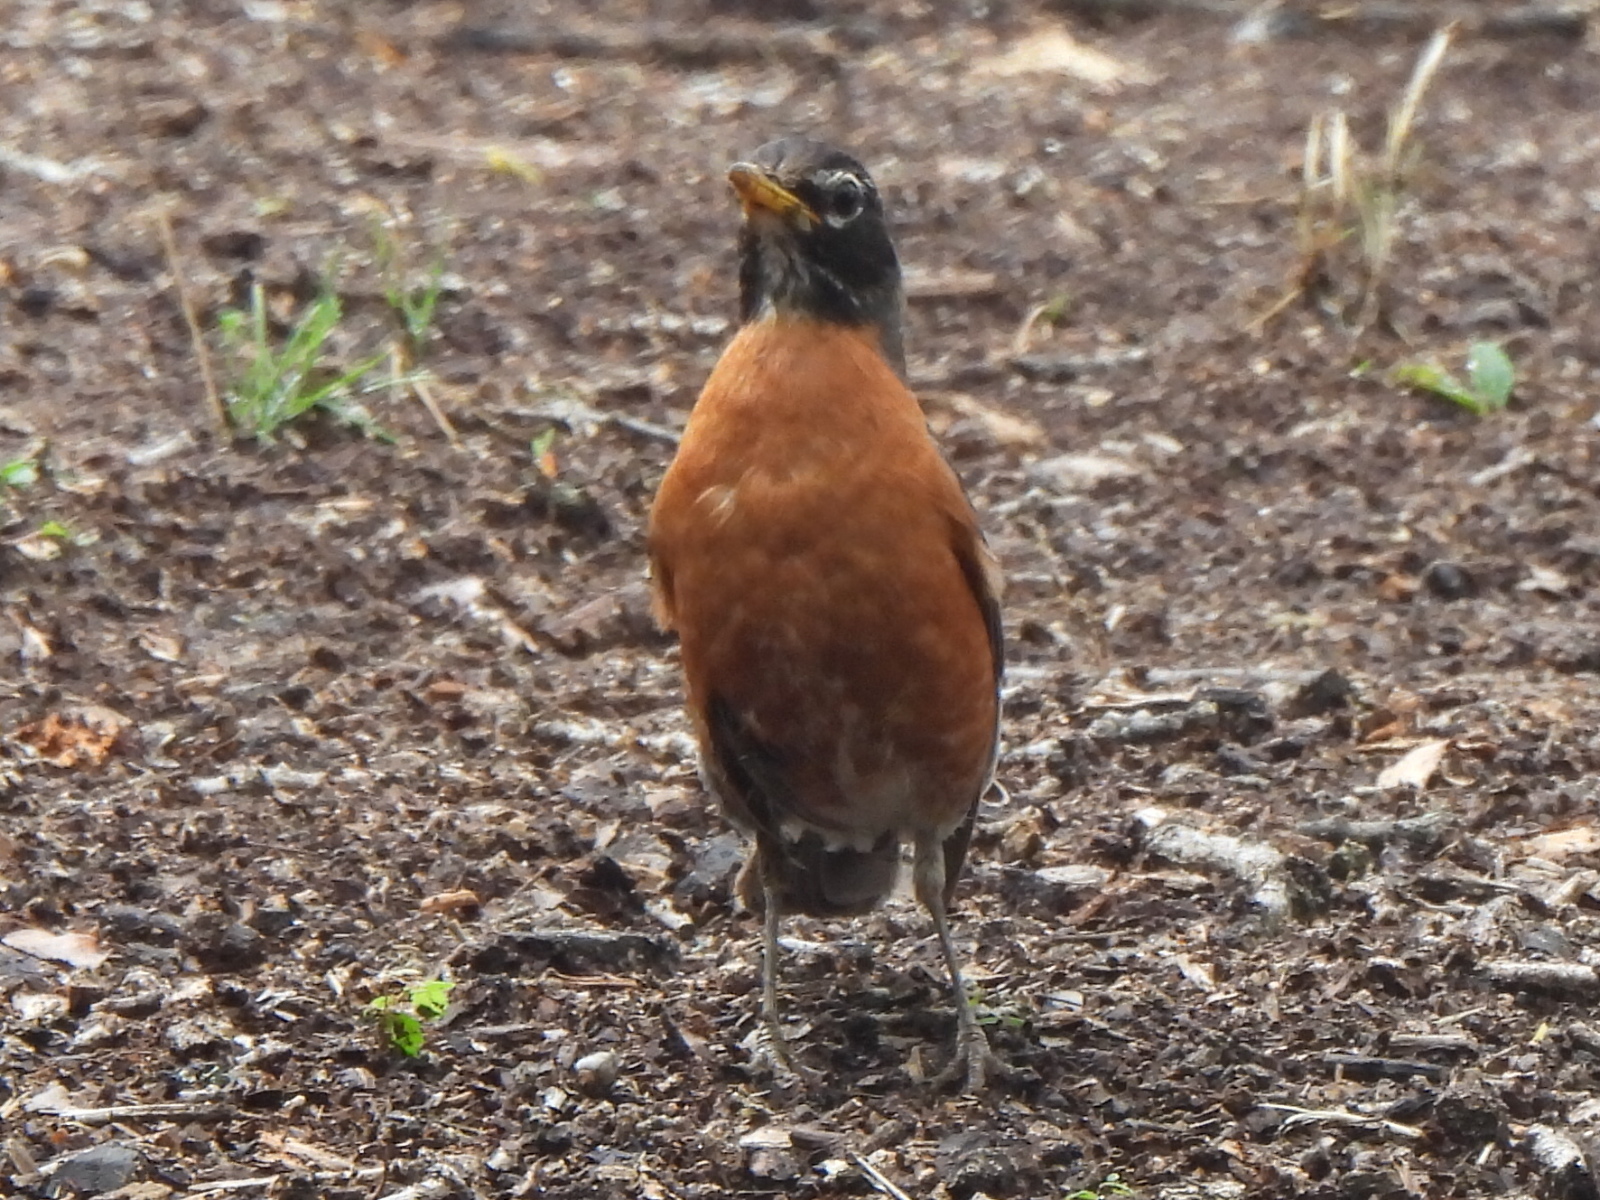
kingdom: Animalia
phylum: Chordata
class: Aves
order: Passeriformes
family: Turdidae
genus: Turdus
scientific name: Turdus migratorius
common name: American robin
